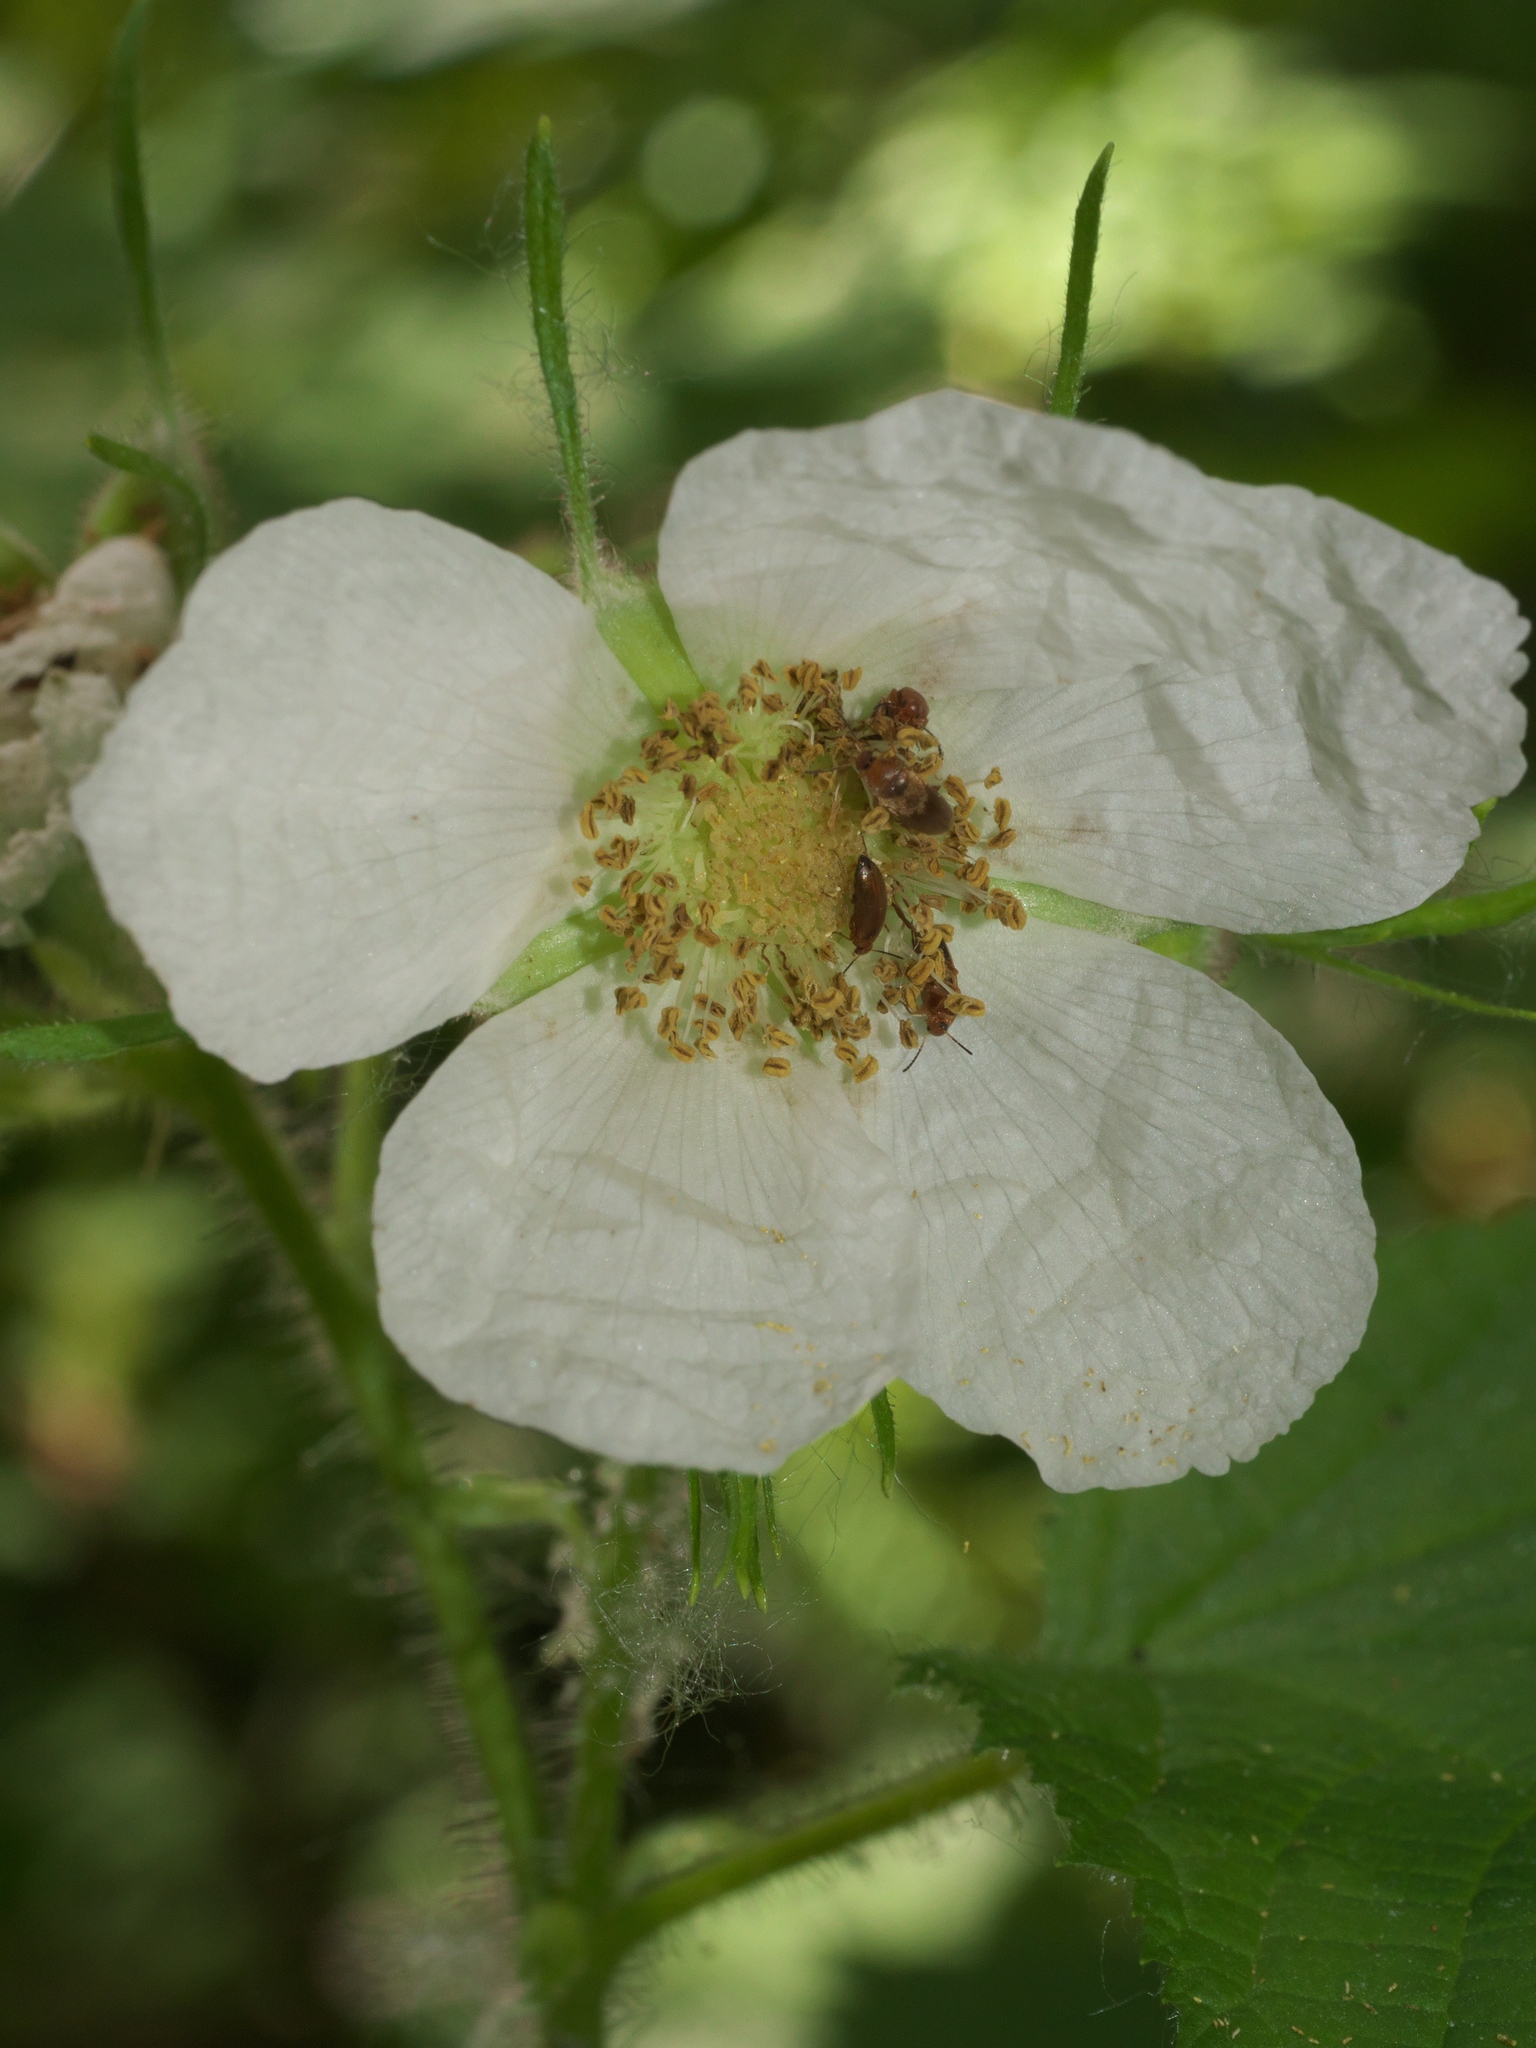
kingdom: Plantae
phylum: Tracheophyta
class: Magnoliopsida
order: Rosales
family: Rosaceae
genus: Rubus
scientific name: Rubus parviflorus
